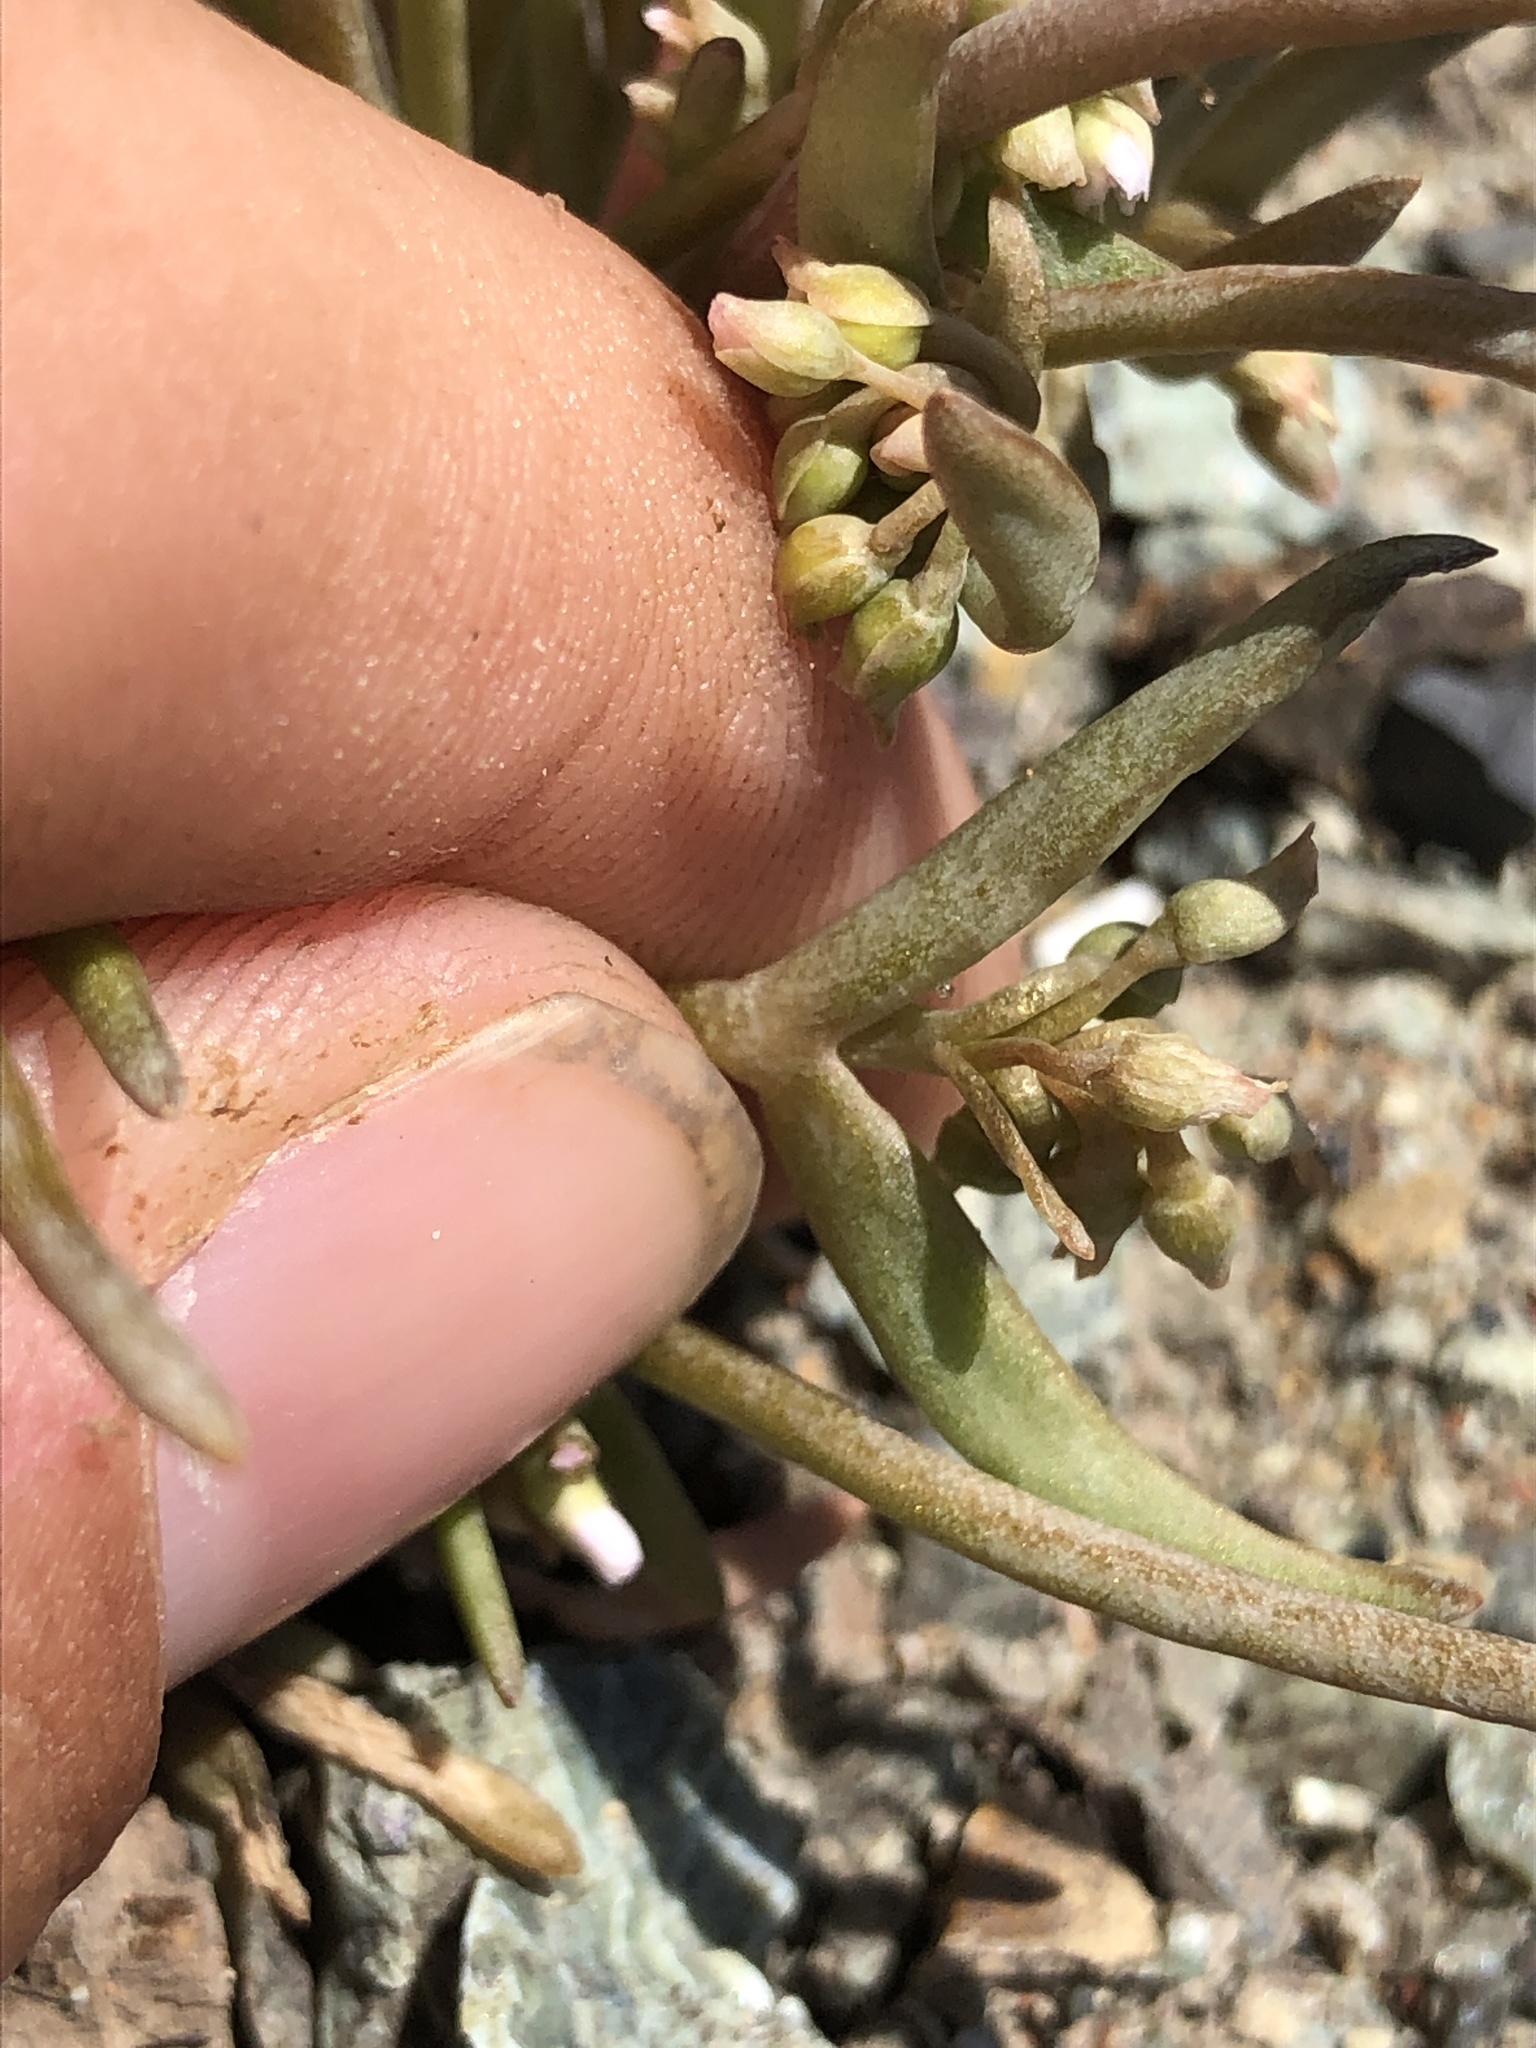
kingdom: Plantae
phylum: Tracheophyta
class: Magnoliopsida
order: Caryophyllales
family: Montiaceae
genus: Claytonia
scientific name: Claytonia exigua
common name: Pale spring beauty
